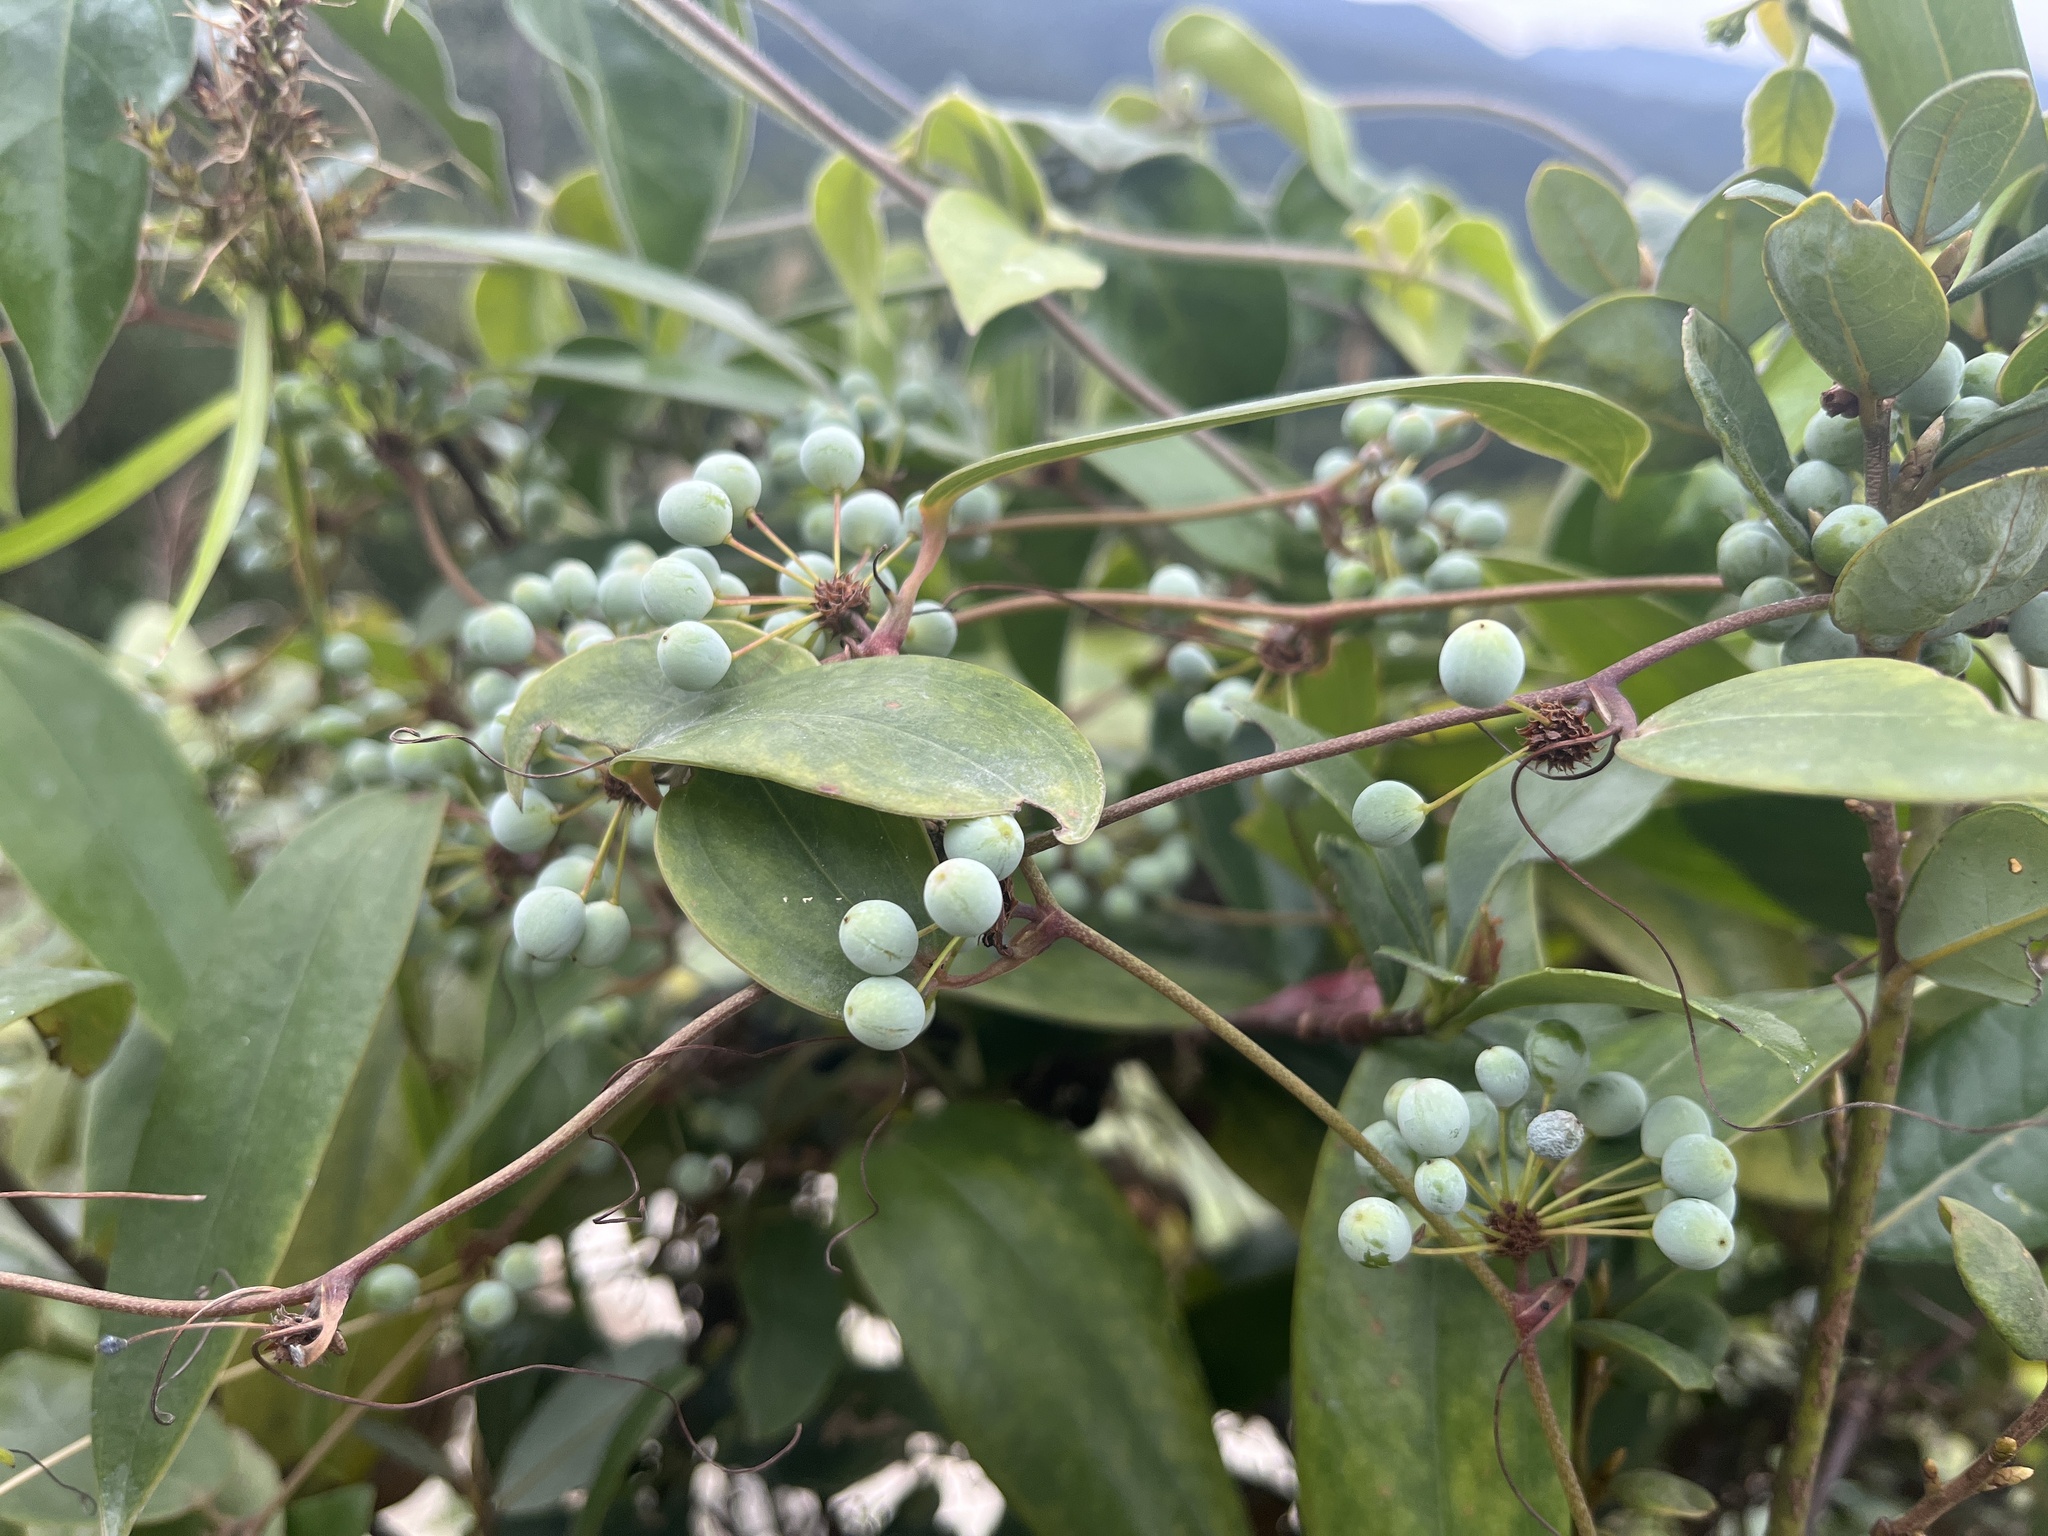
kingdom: Plantae
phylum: Tracheophyta
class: Liliopsida
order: Liliales
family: Smilacaceae
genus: Smilax
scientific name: Smilax glabra
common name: Chinese smilax
